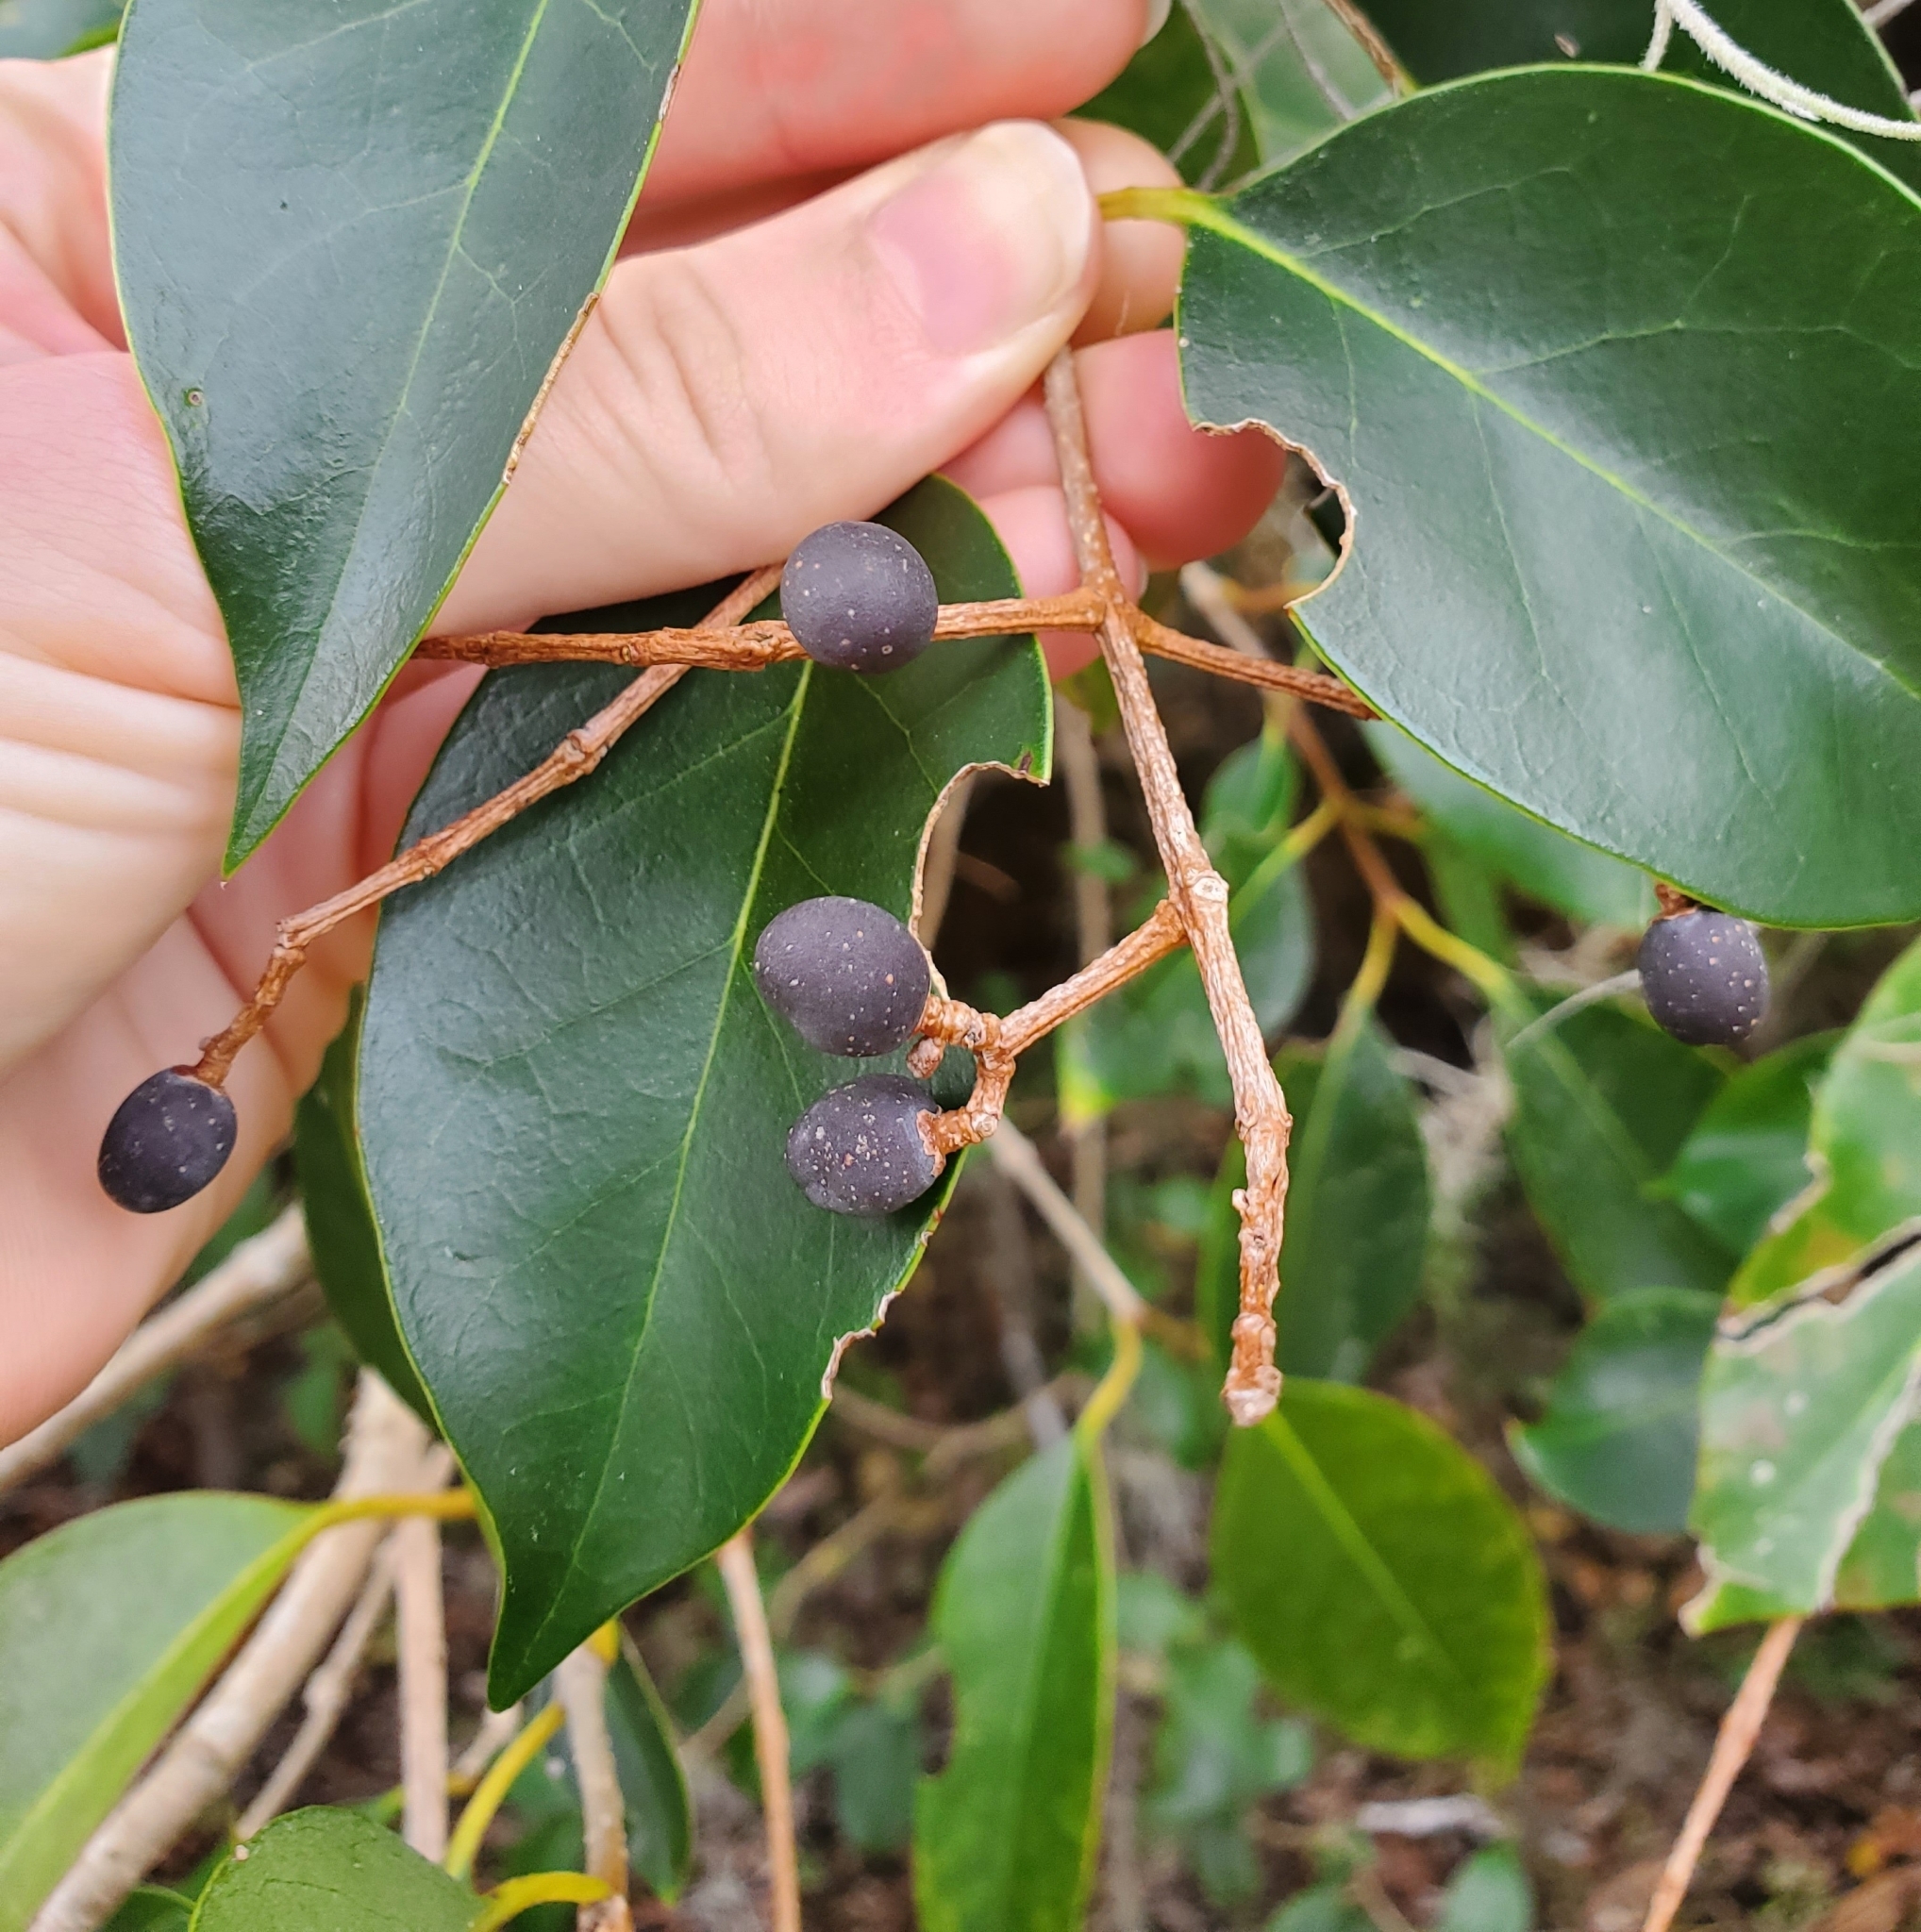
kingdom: Plantae
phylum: Tracheophyta
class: Magnoliopsida
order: Lamiales
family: Oleaceae
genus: Ligustrum
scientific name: Ligustrum lucidum
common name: Glossy privet
